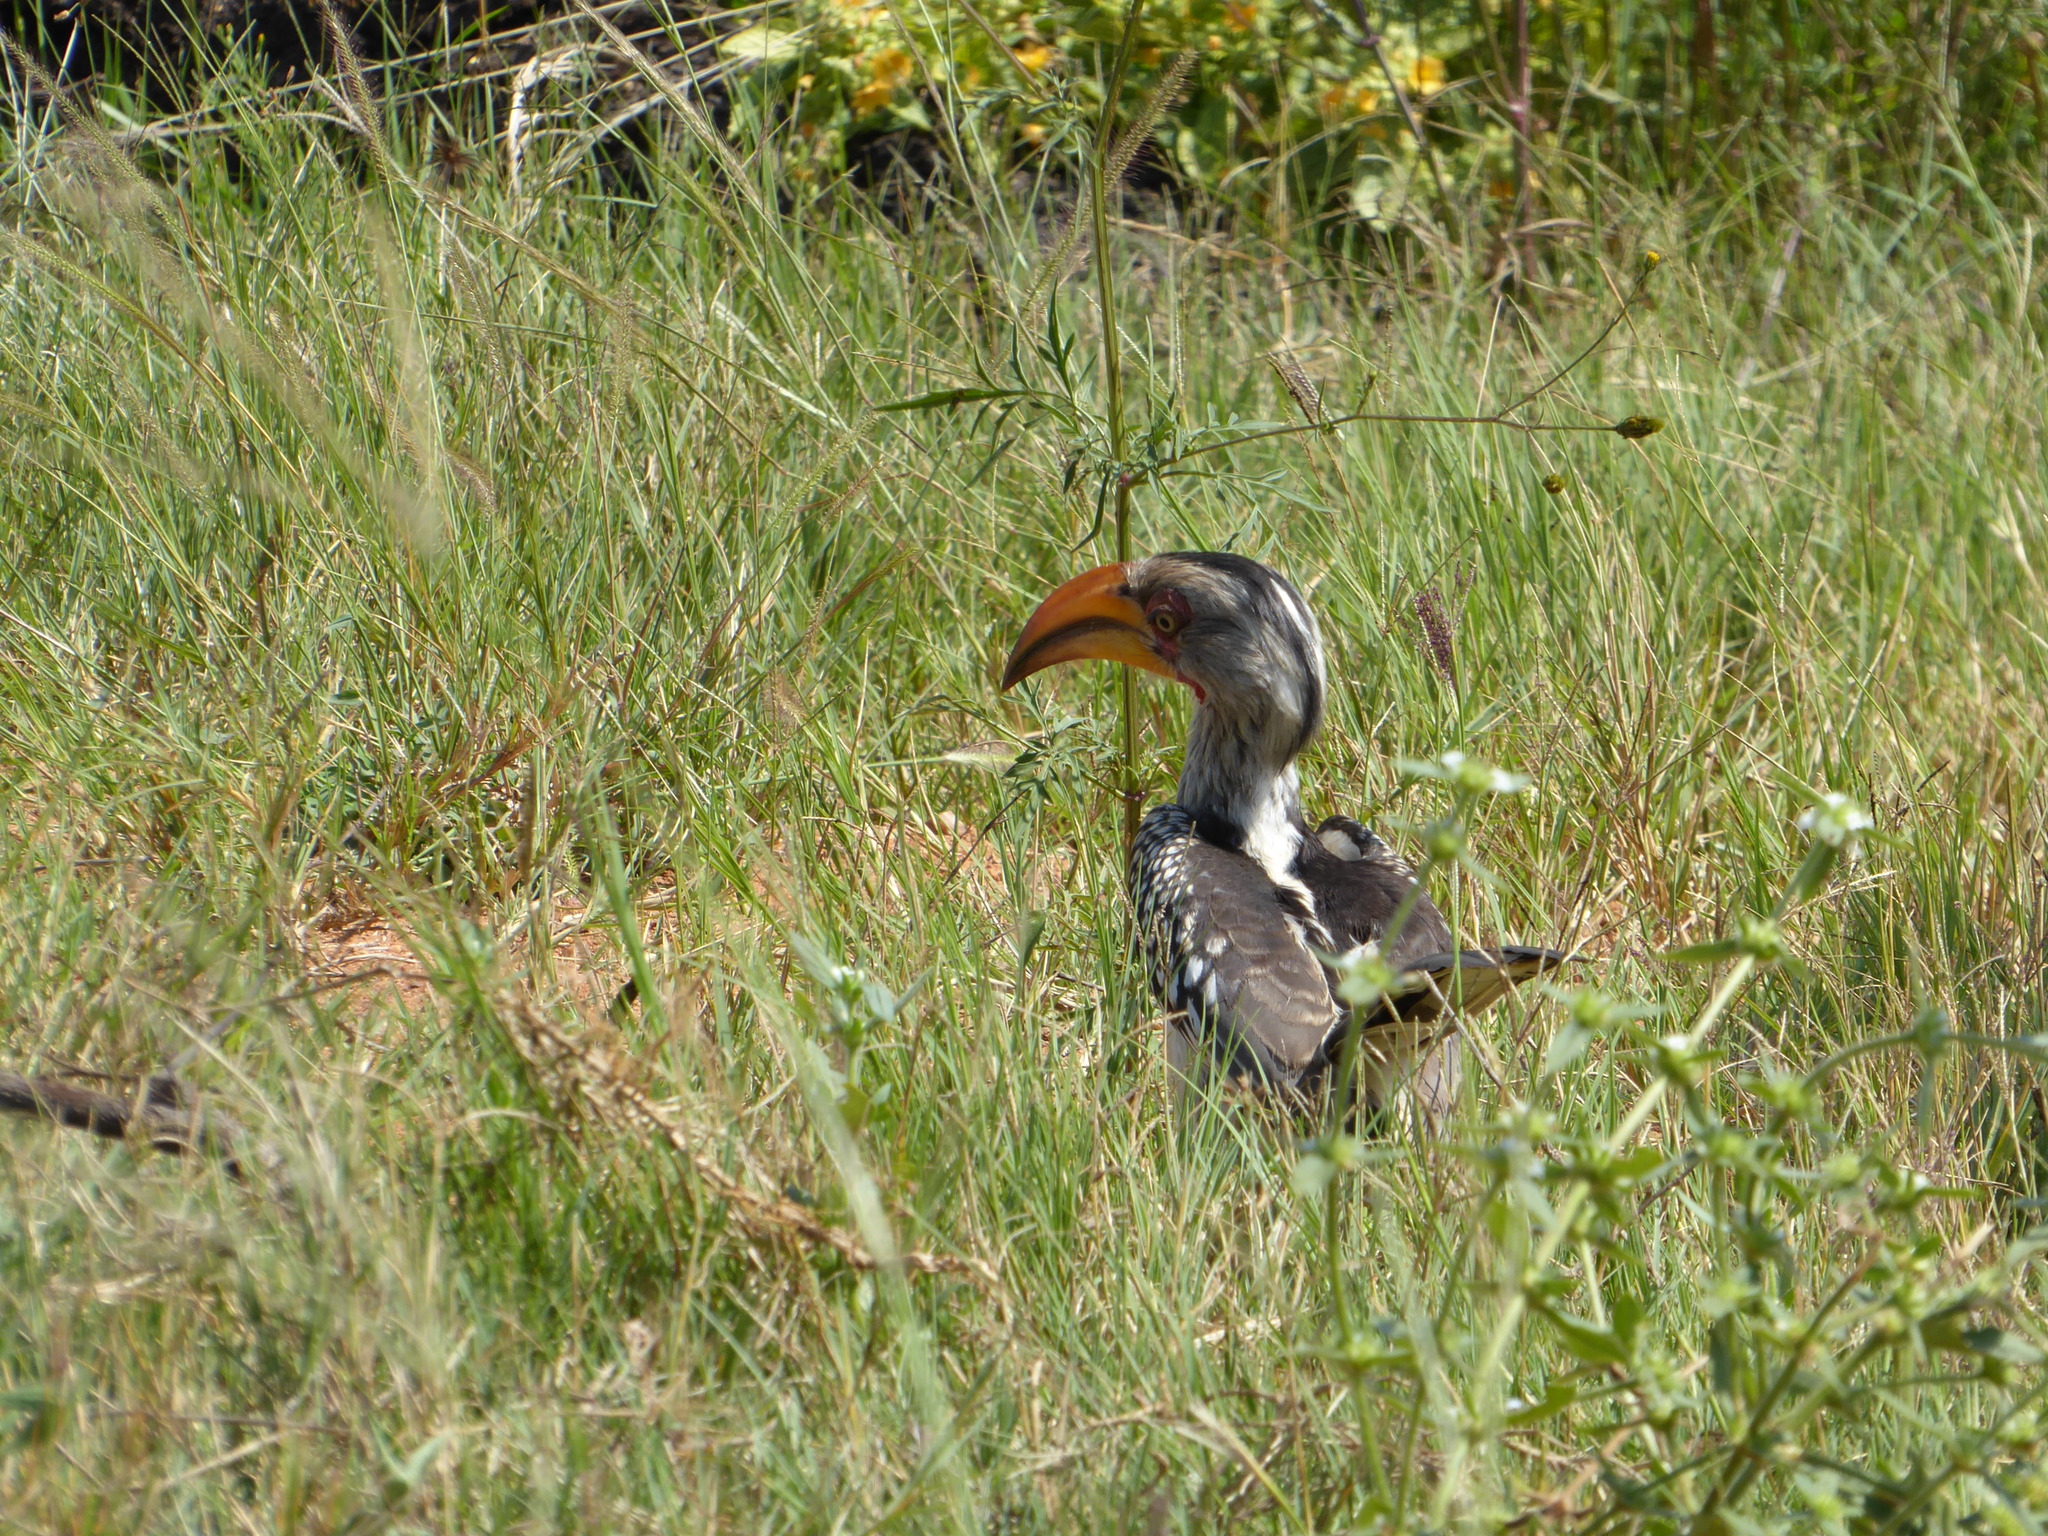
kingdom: Animalia
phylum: Chordata
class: Aves
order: Bucerotiformes
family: Bucerotidae
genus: Tockus
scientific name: Tockus leucomelas
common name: Southern yellow-billed hornbill
